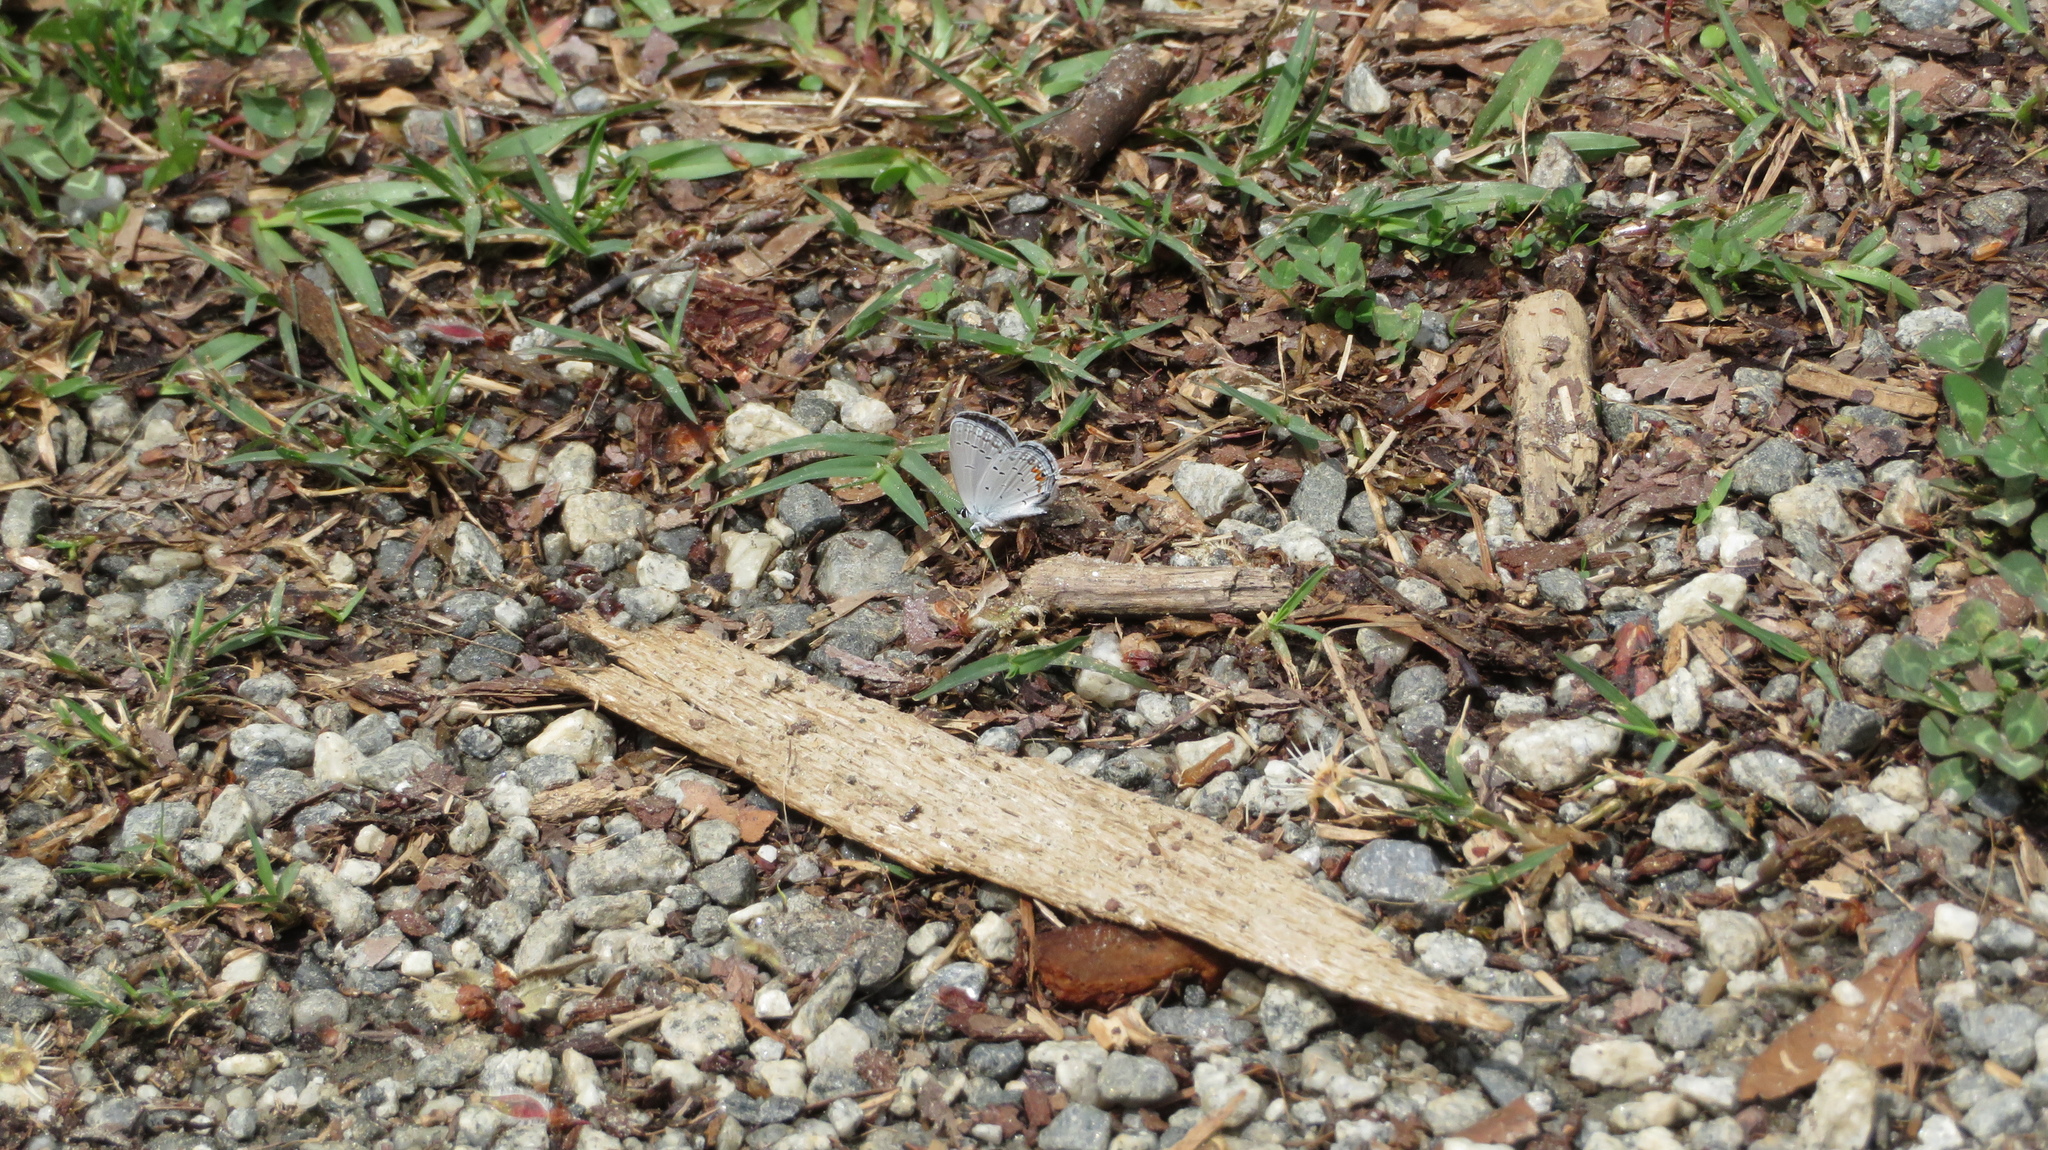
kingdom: Animalia
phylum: Arthropoda
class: Insecta
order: Lepidoptera
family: Lycaenidae
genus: Elkalyce
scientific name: Elkalyce comyntas
